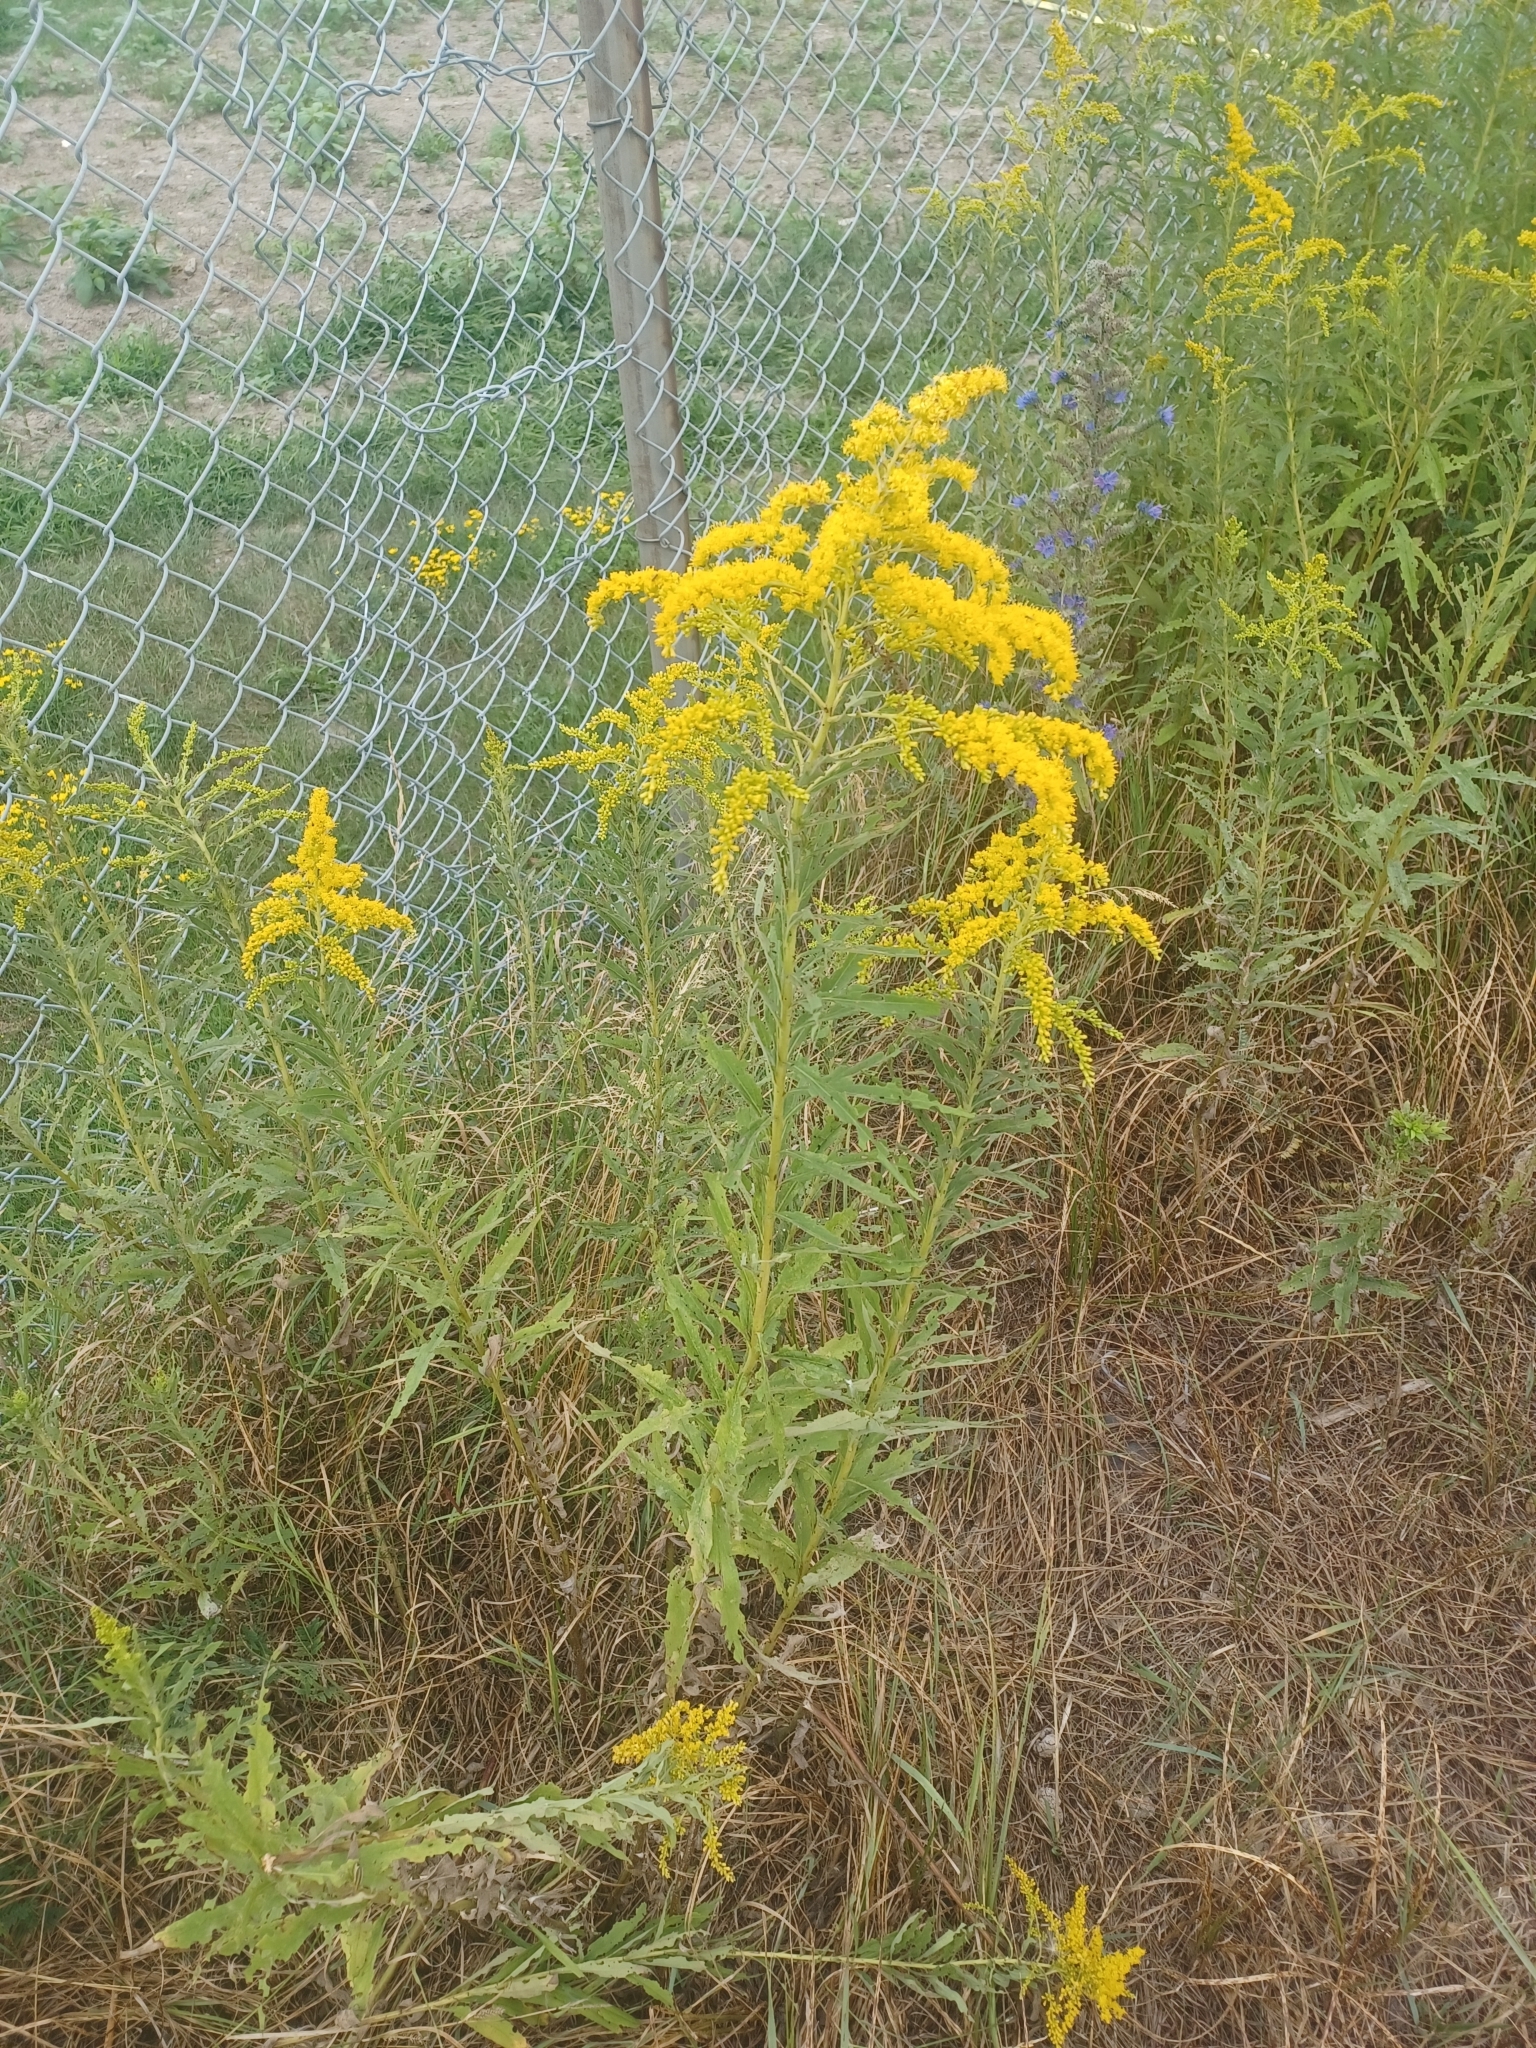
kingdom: Plantae
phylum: Tracheophyta
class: Magnoliopsida
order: Asterales
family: Asteraceae
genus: Solidago
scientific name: Solidago canadensis
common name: Canada goldenrod
